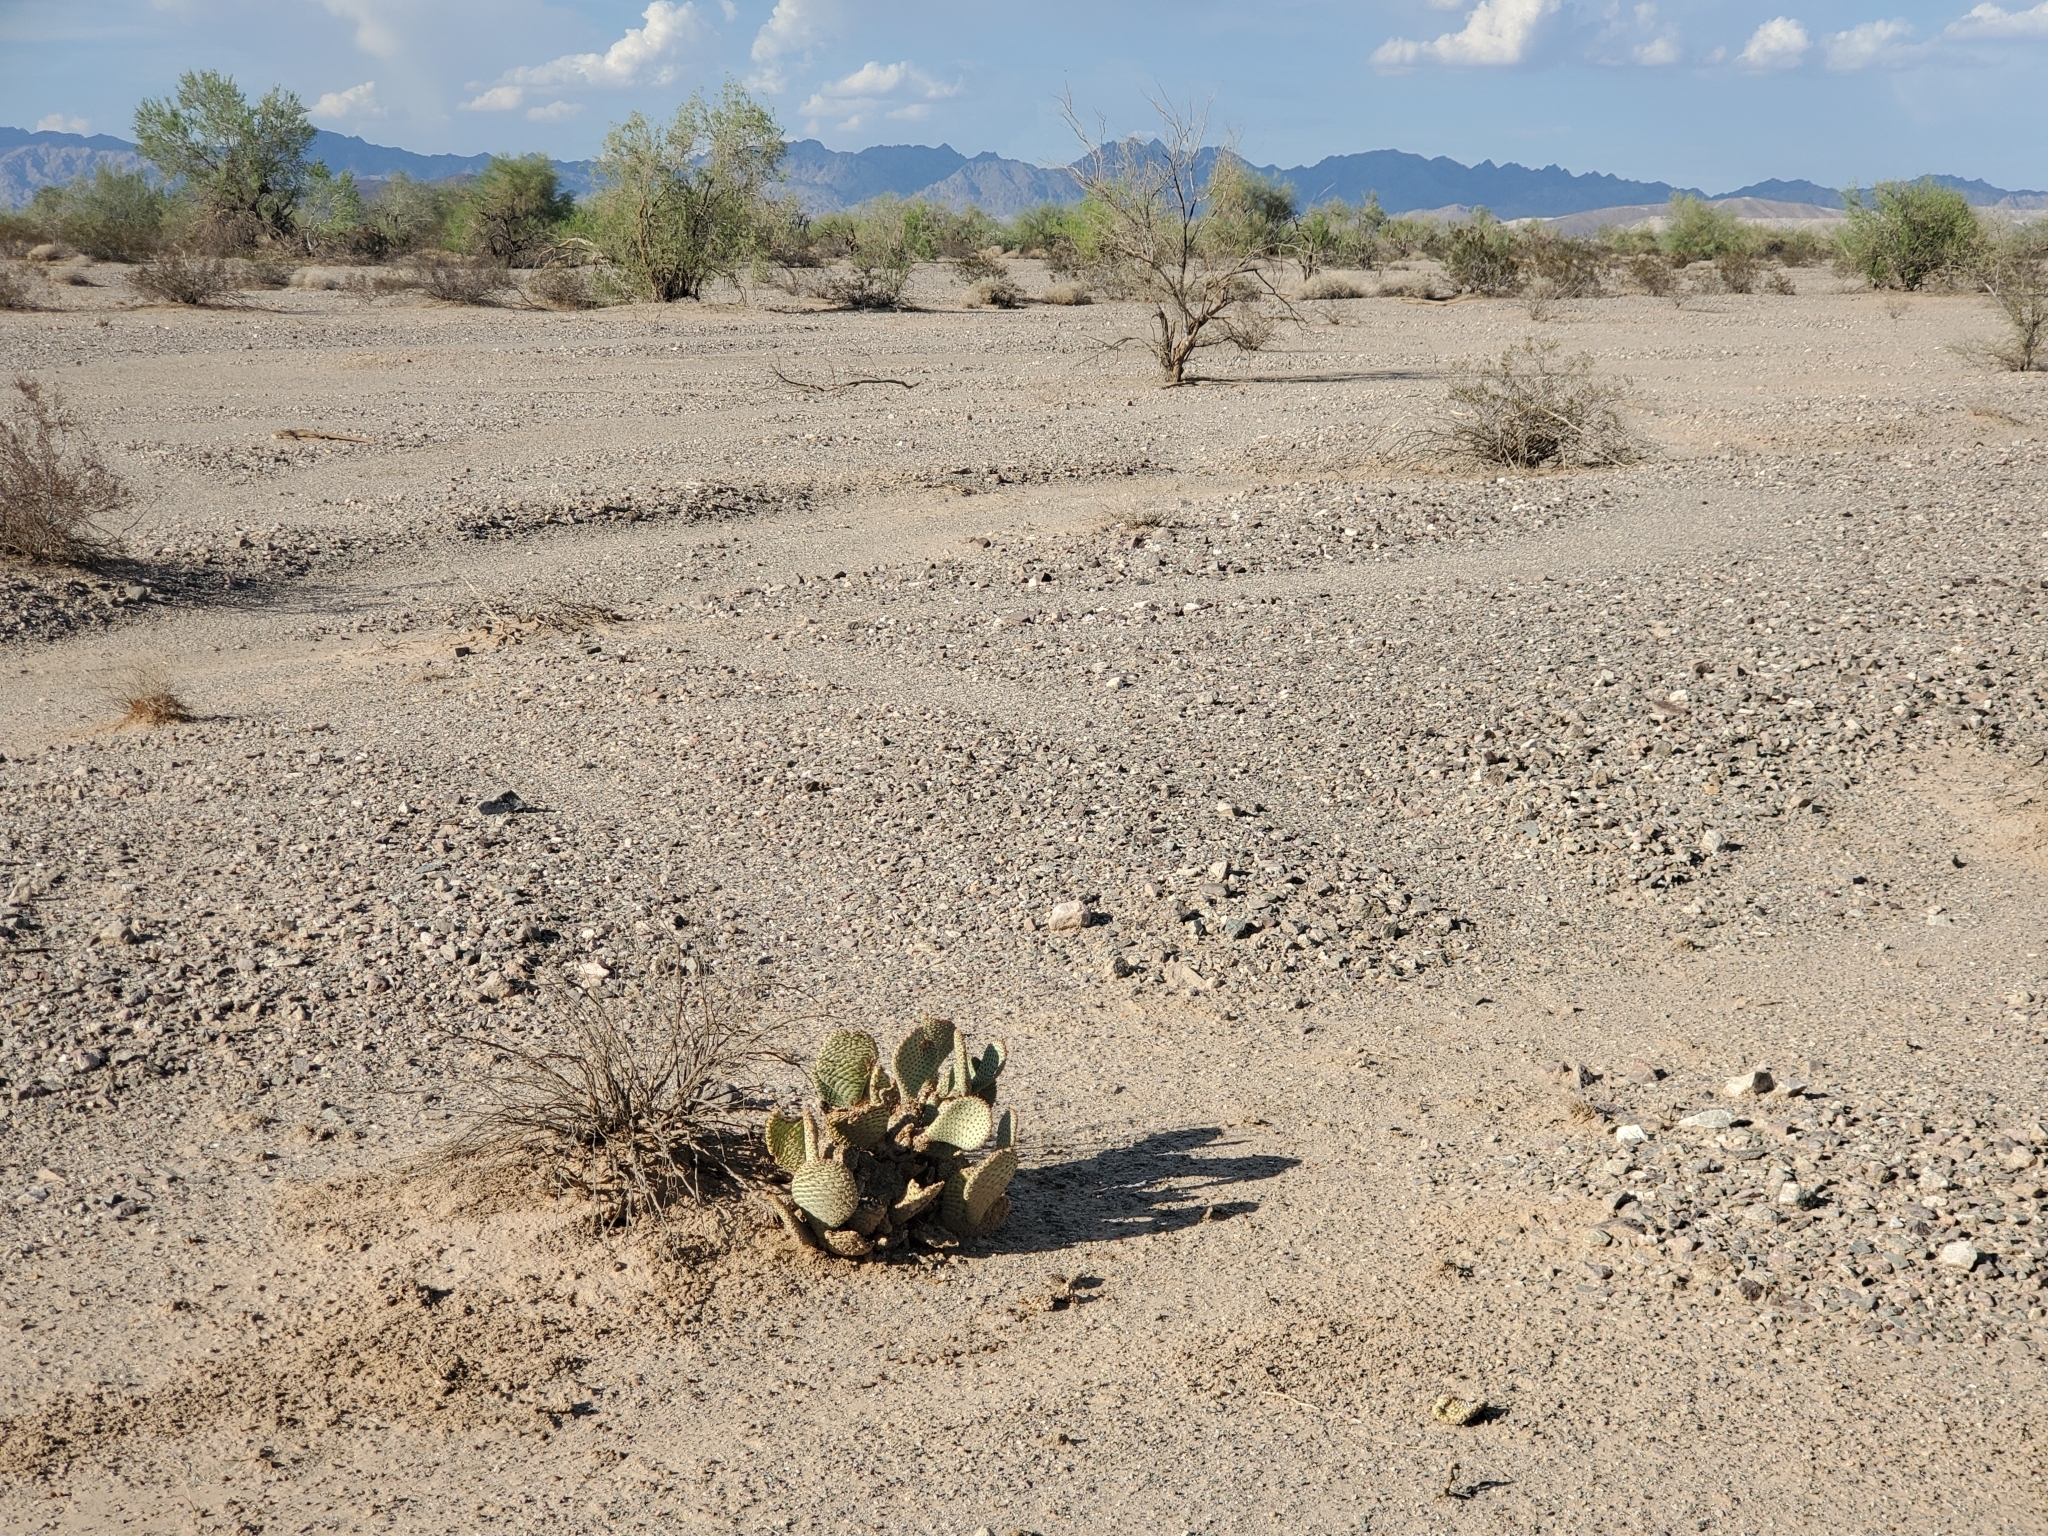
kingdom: Plantae
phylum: Tracheophyta
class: Magnoliopsida
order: Caryophyllales
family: Cactaceae
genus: Opuntia
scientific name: Opuntia basilaris
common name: Beavertail prickly-pear
